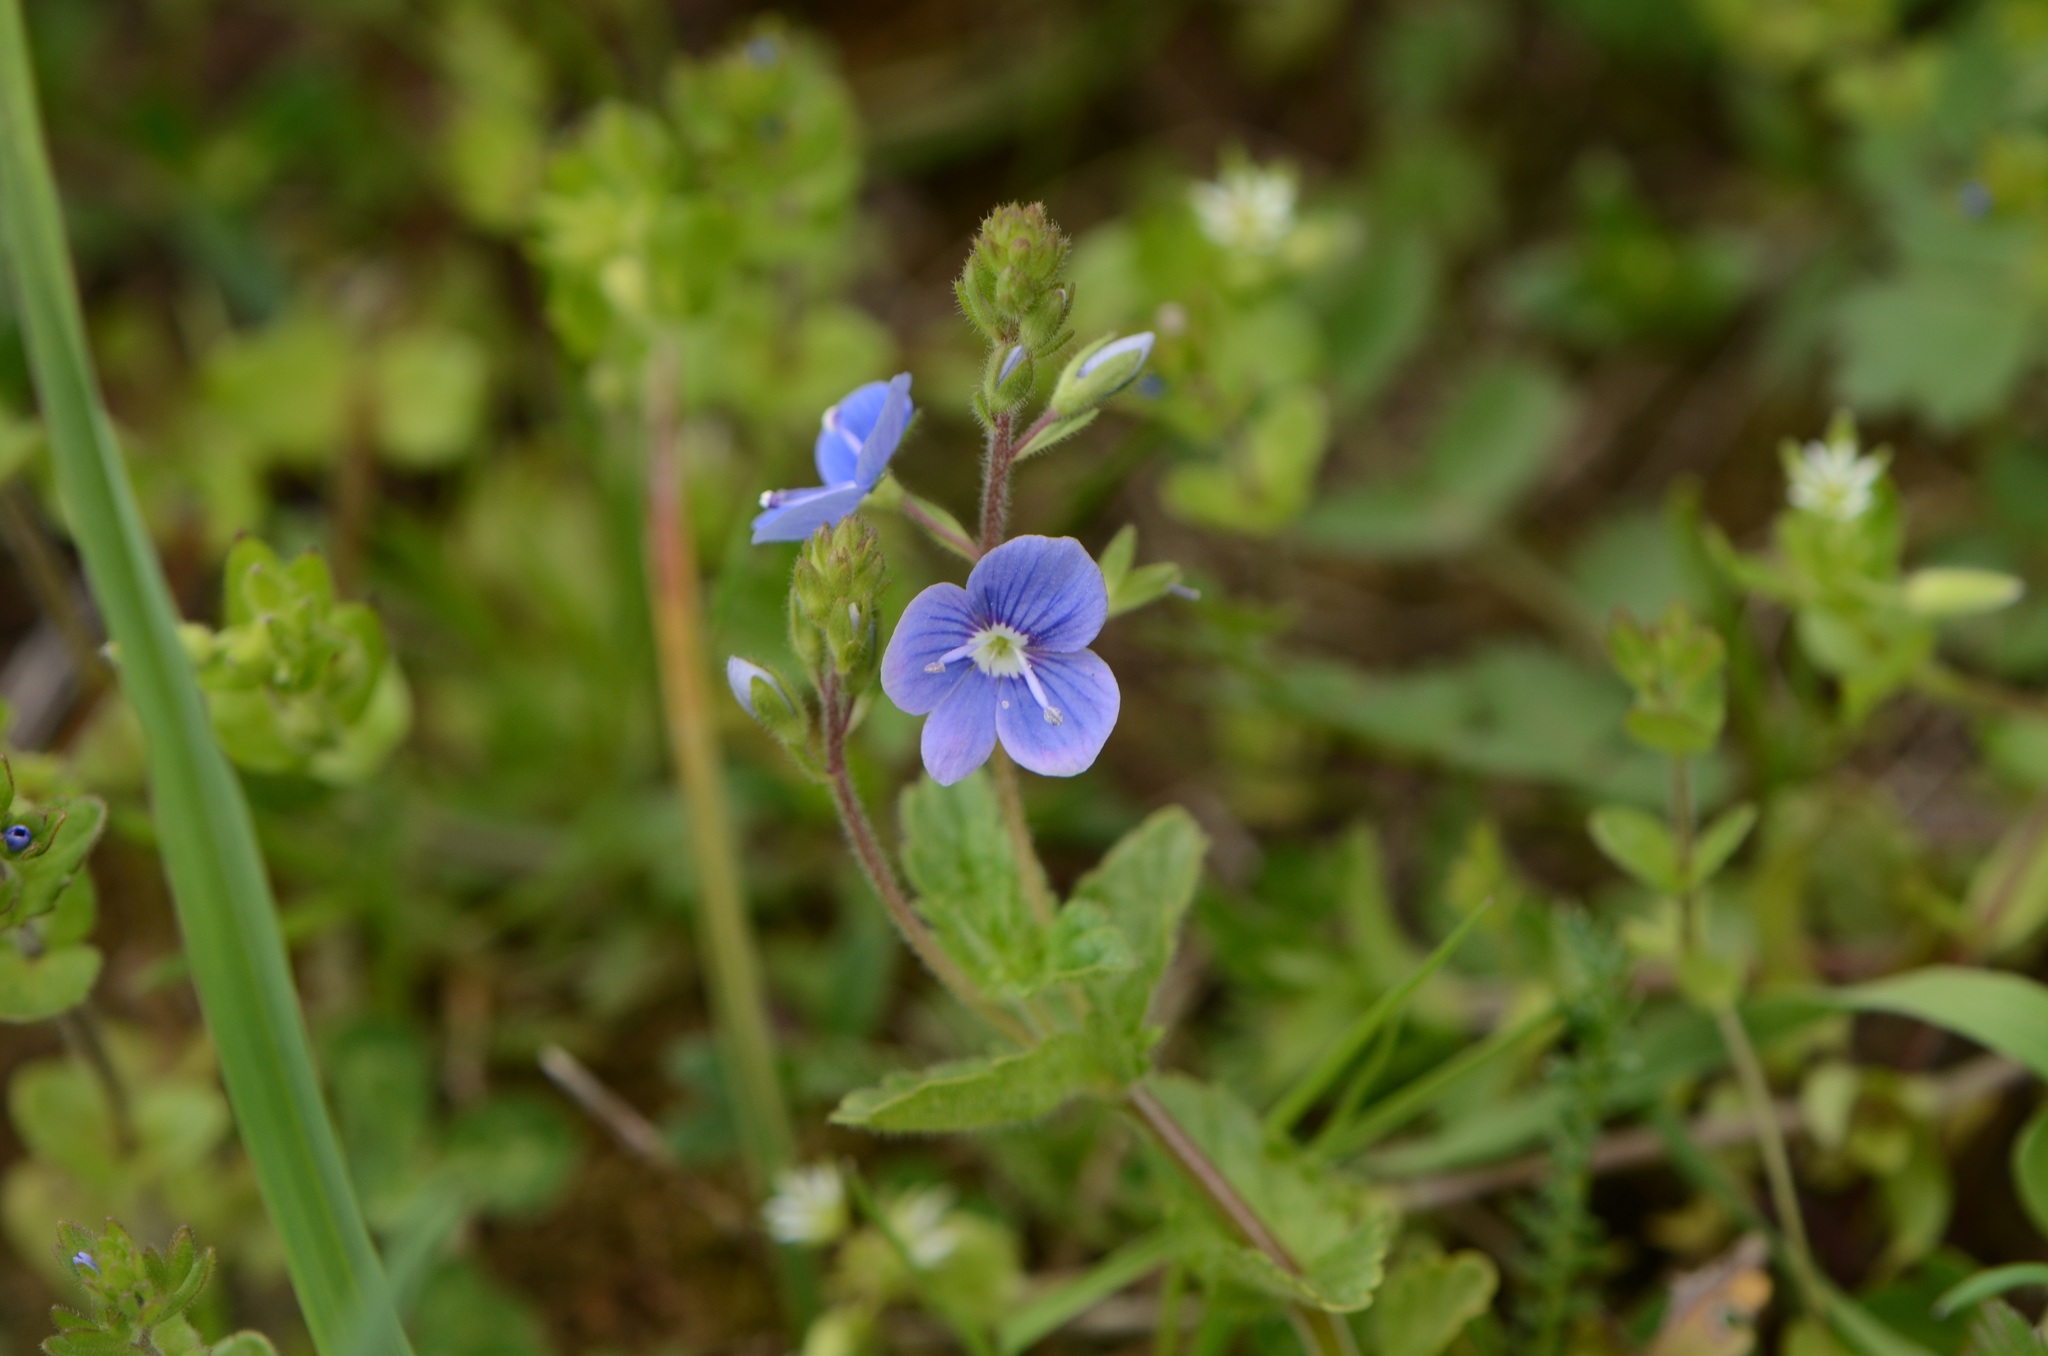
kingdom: Plantae
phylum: Tracheophyta
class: Magnoliopsida
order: Lamiales
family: Plantaginaceae
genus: Veronica
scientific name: Veronica chamaedrys
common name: Germander speedwell
